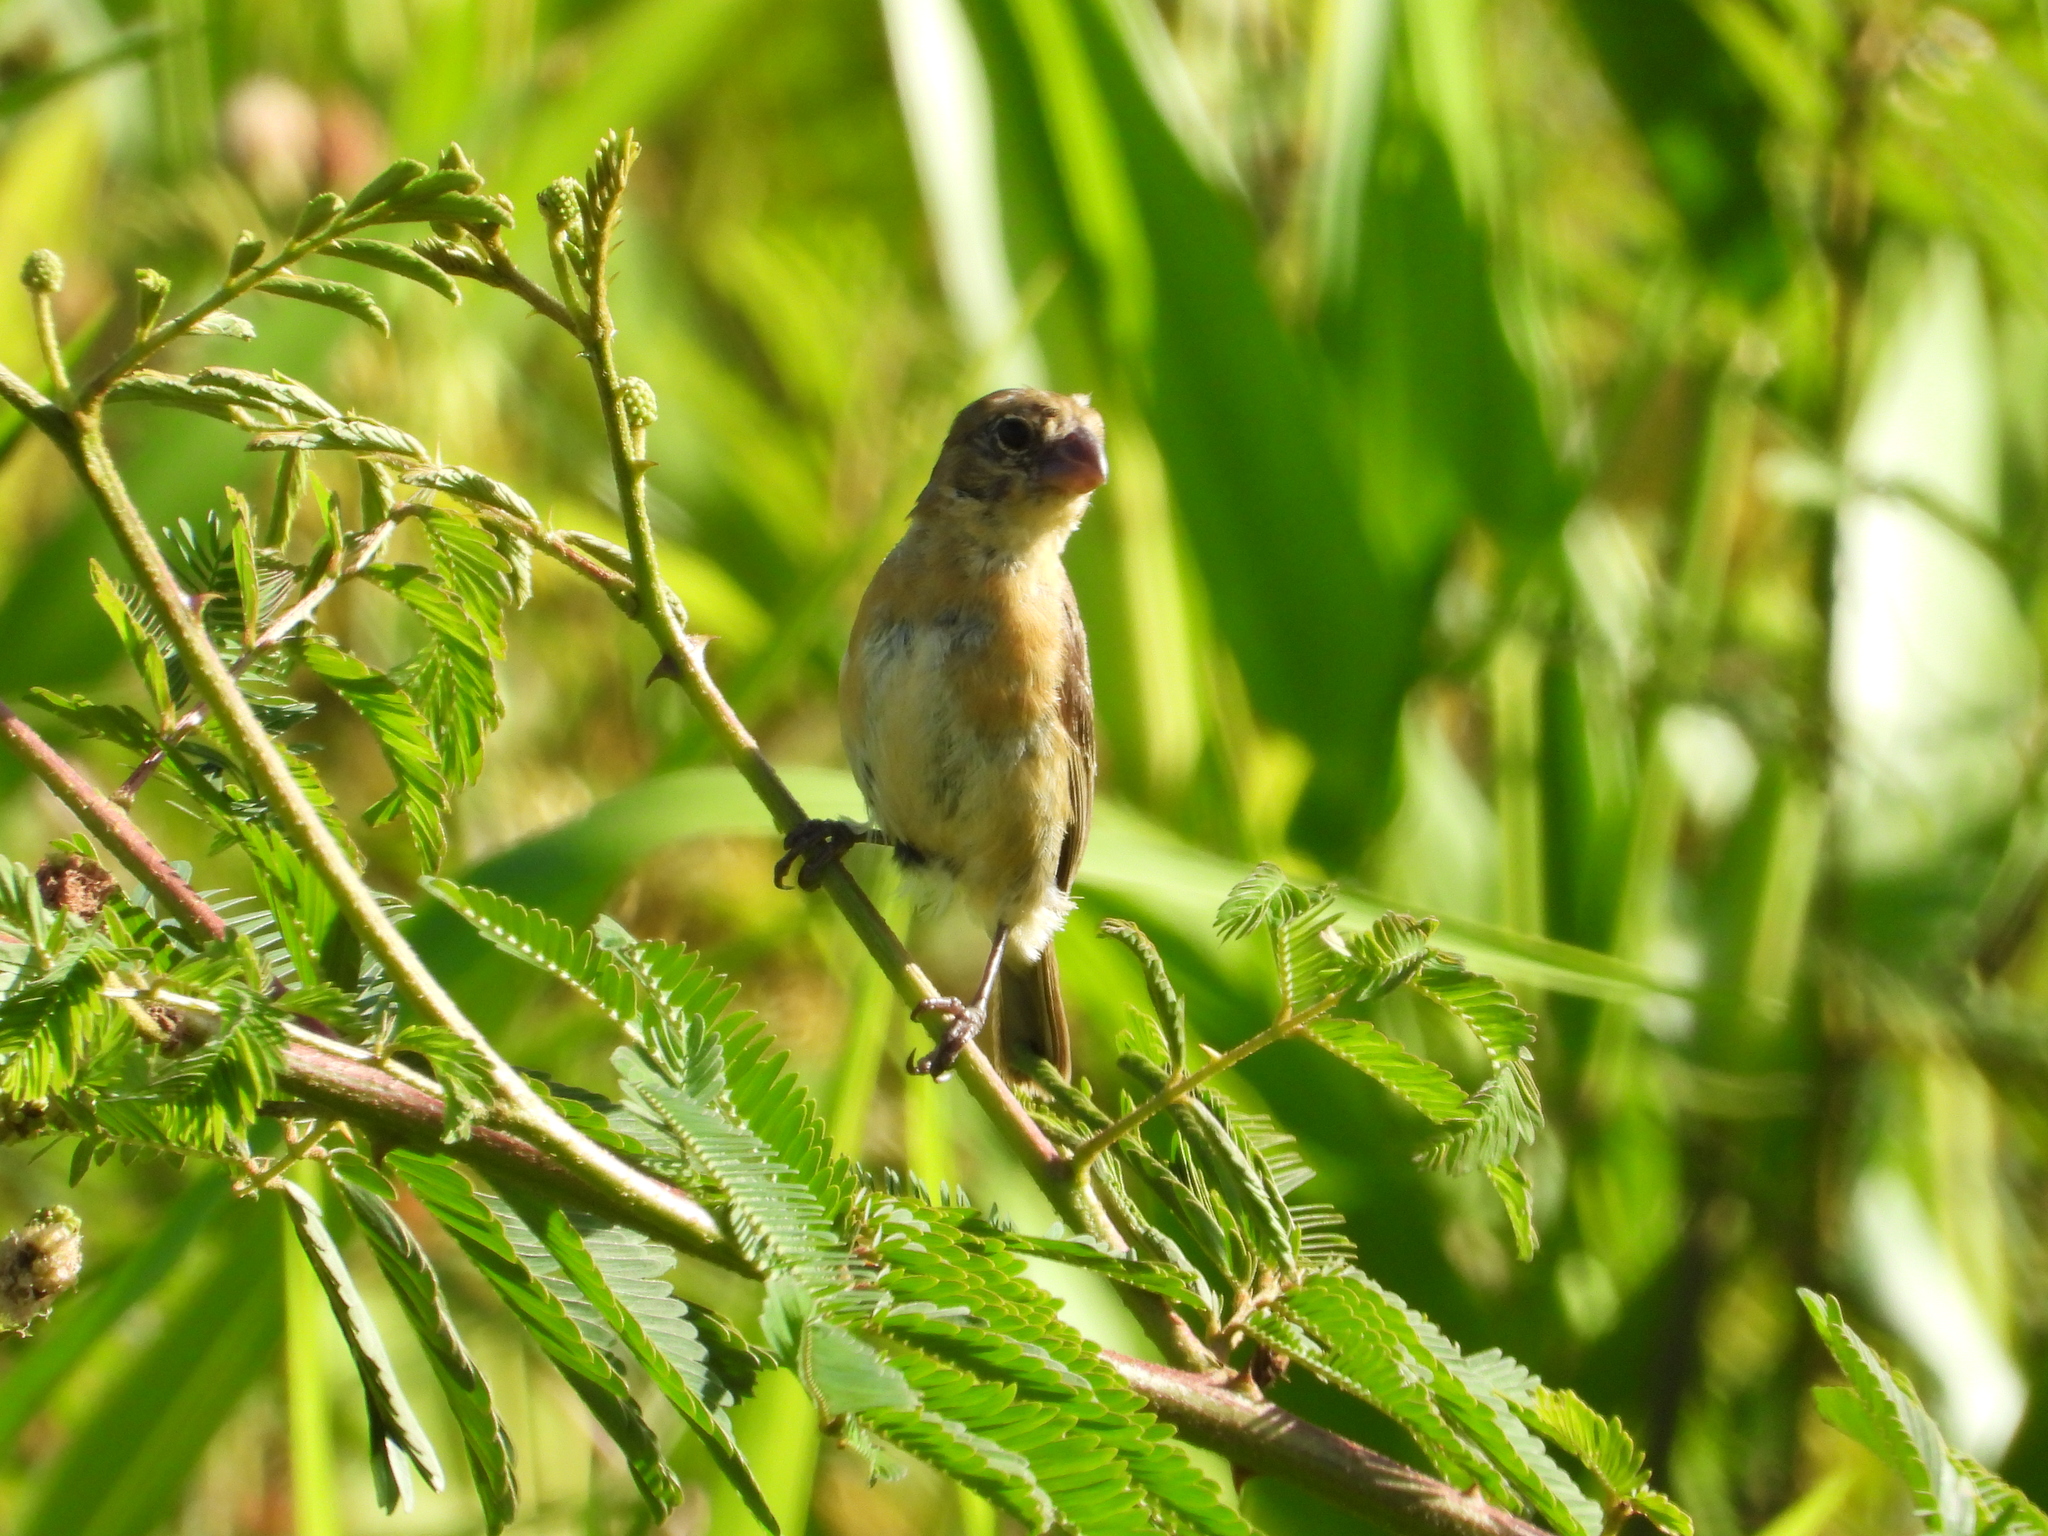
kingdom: Animalia
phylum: Chordata
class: Aves
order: Passeriformes
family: Thraupidae
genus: Sporophila
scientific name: Sporophila morelleti
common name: Morelet's seedeater
